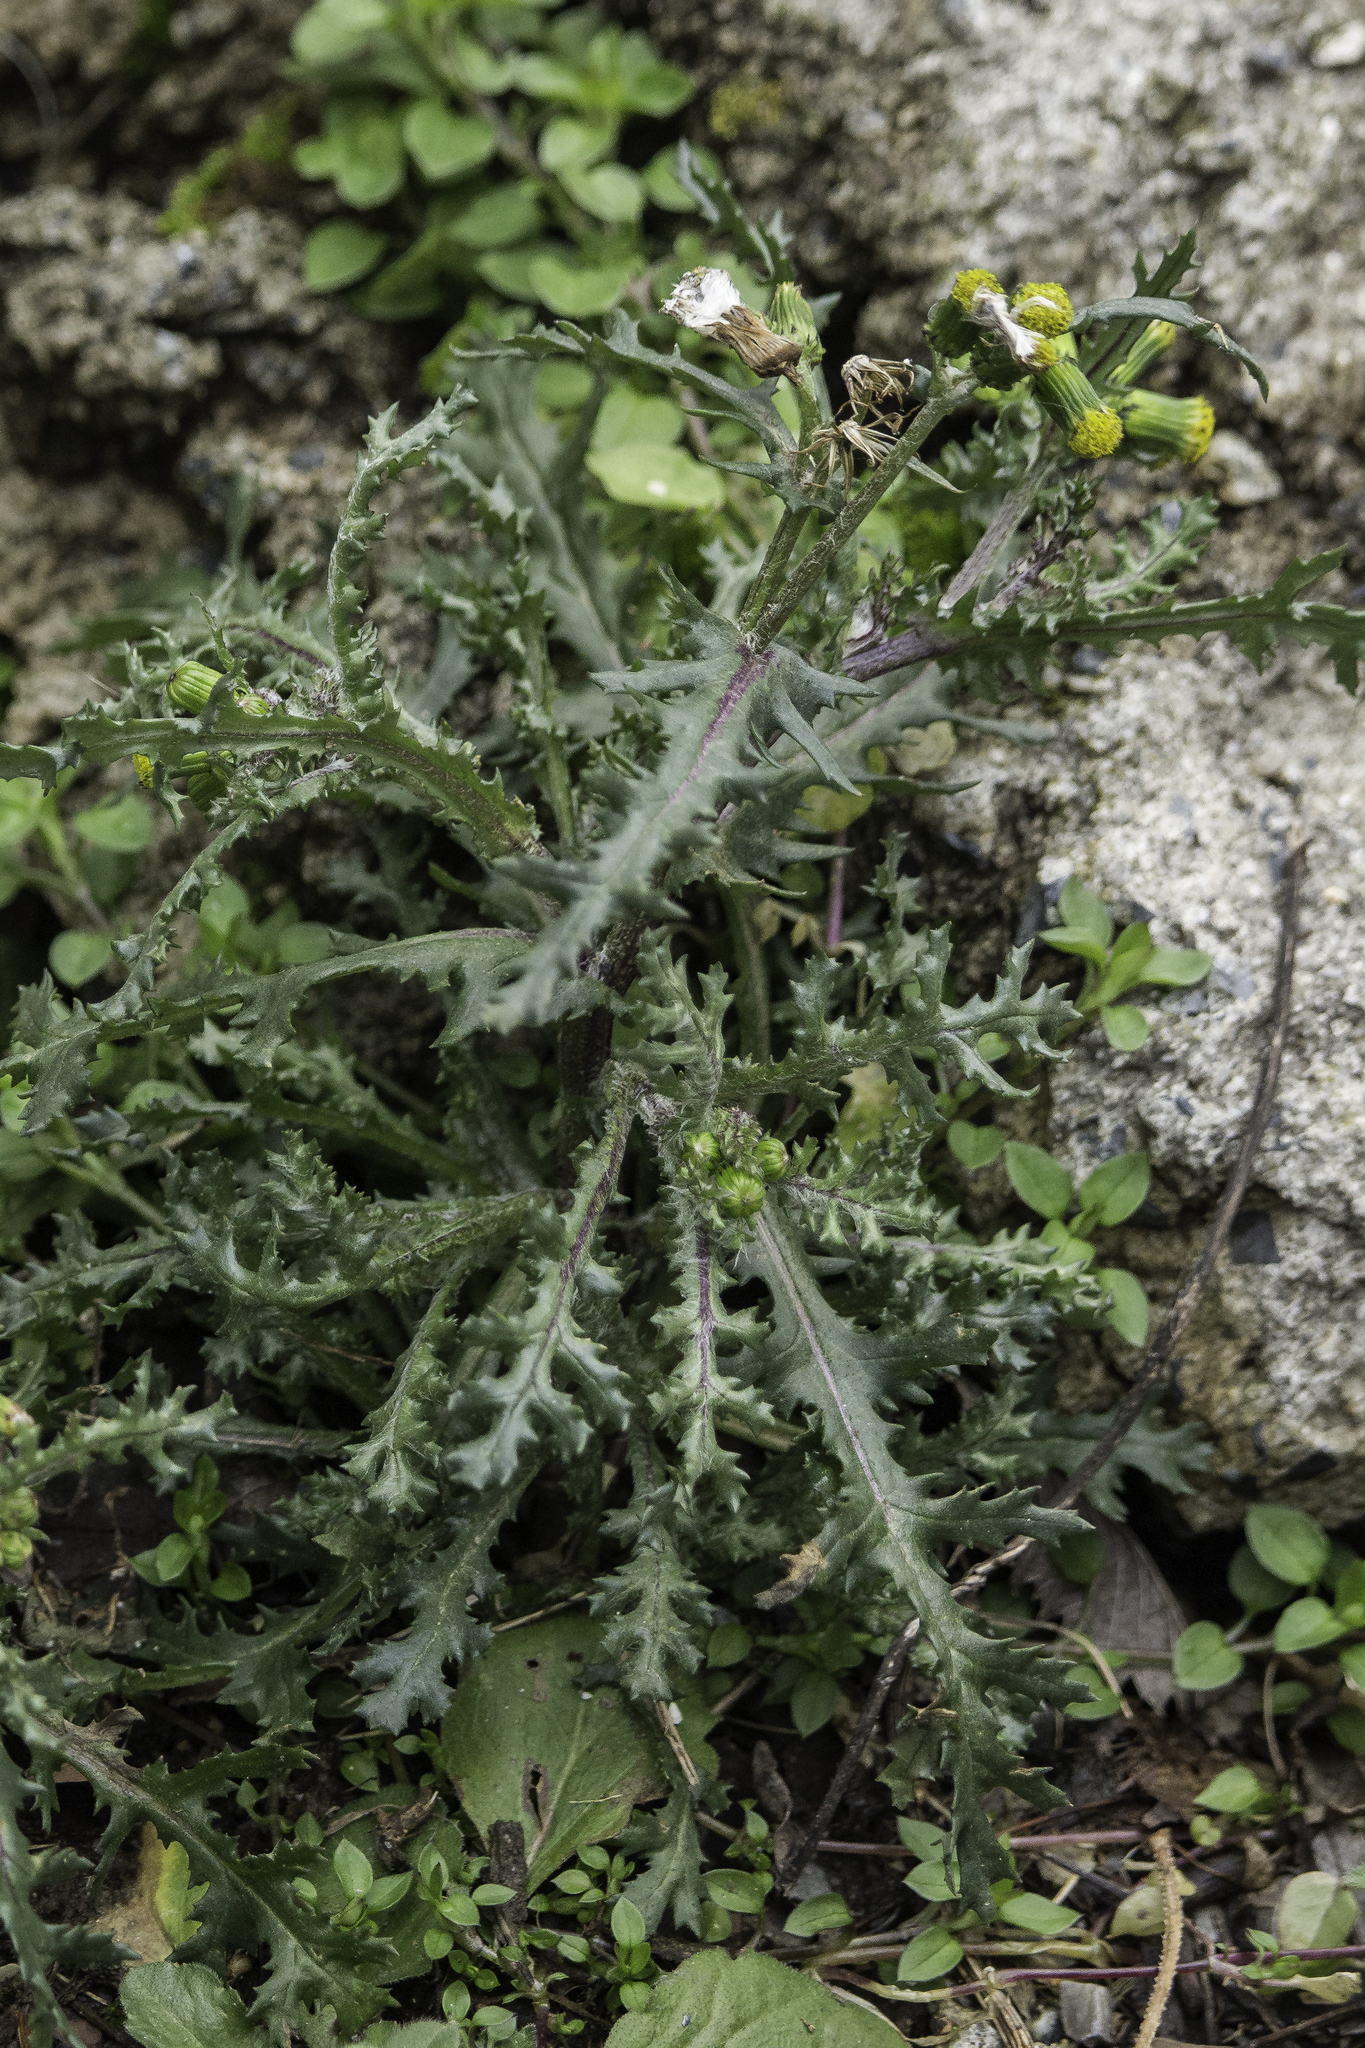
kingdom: Plantae
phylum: Tracheophyta
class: Magnoliopsida
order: Asterales
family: Asteraceae
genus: Senecio
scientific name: Senecio vulgaris
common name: Old-man-in-the-spring
